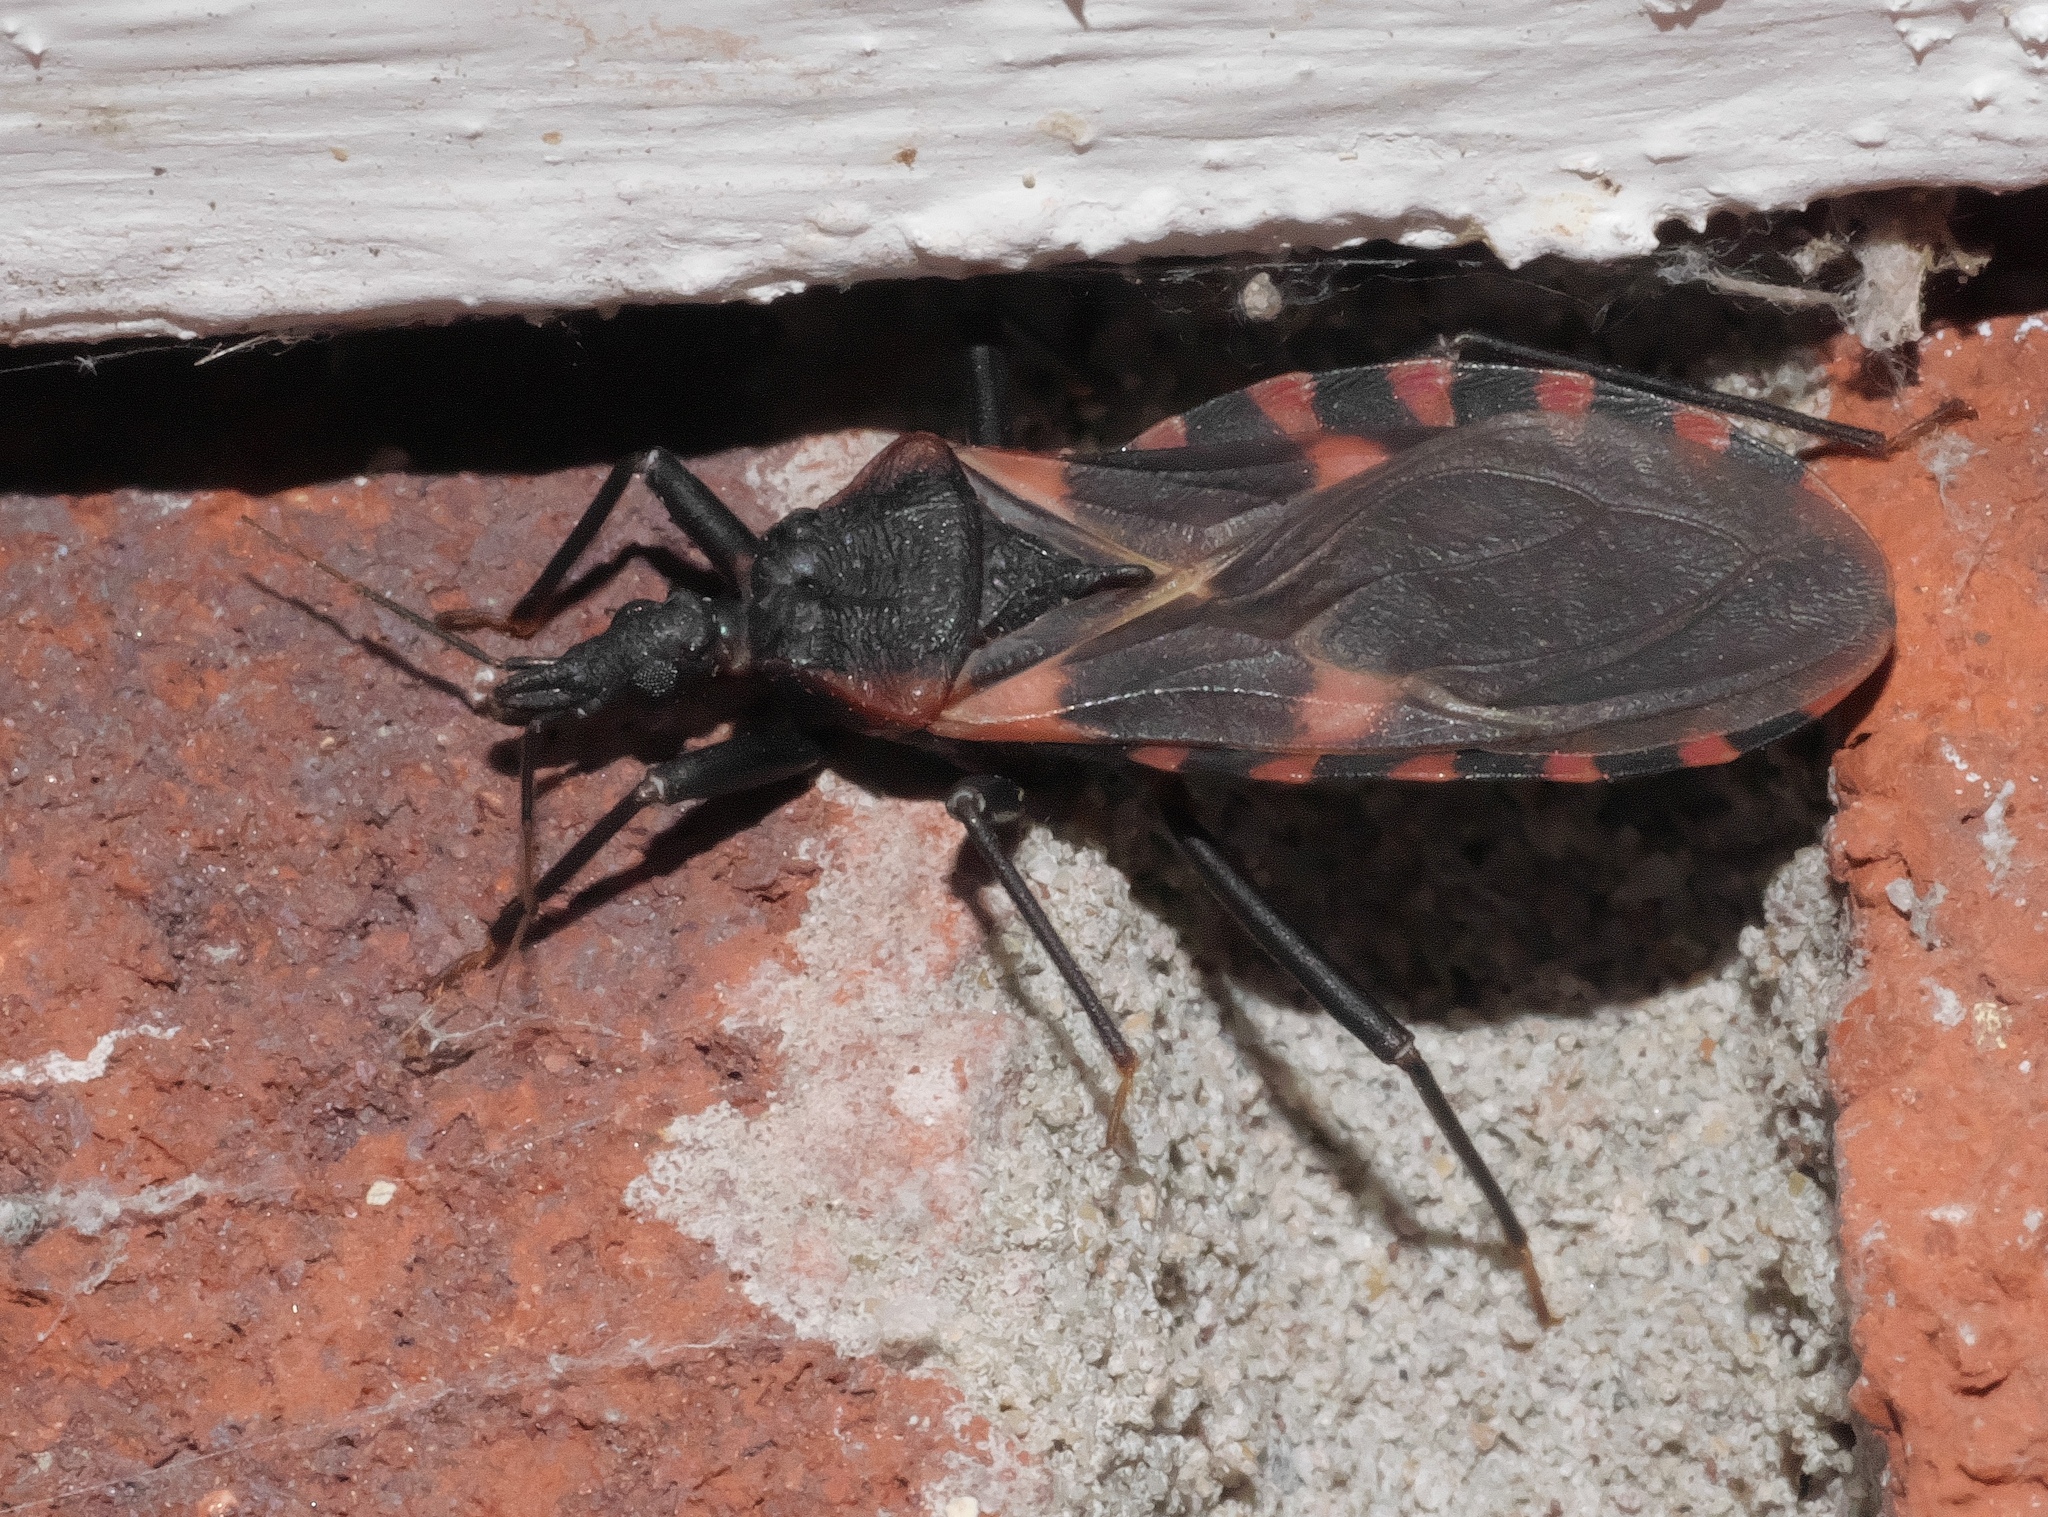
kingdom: Animalia
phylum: Arthropoda
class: Insecta
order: Hemiptera
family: Reduviidae
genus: Triatoma
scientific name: Triatoma sanguisuga
